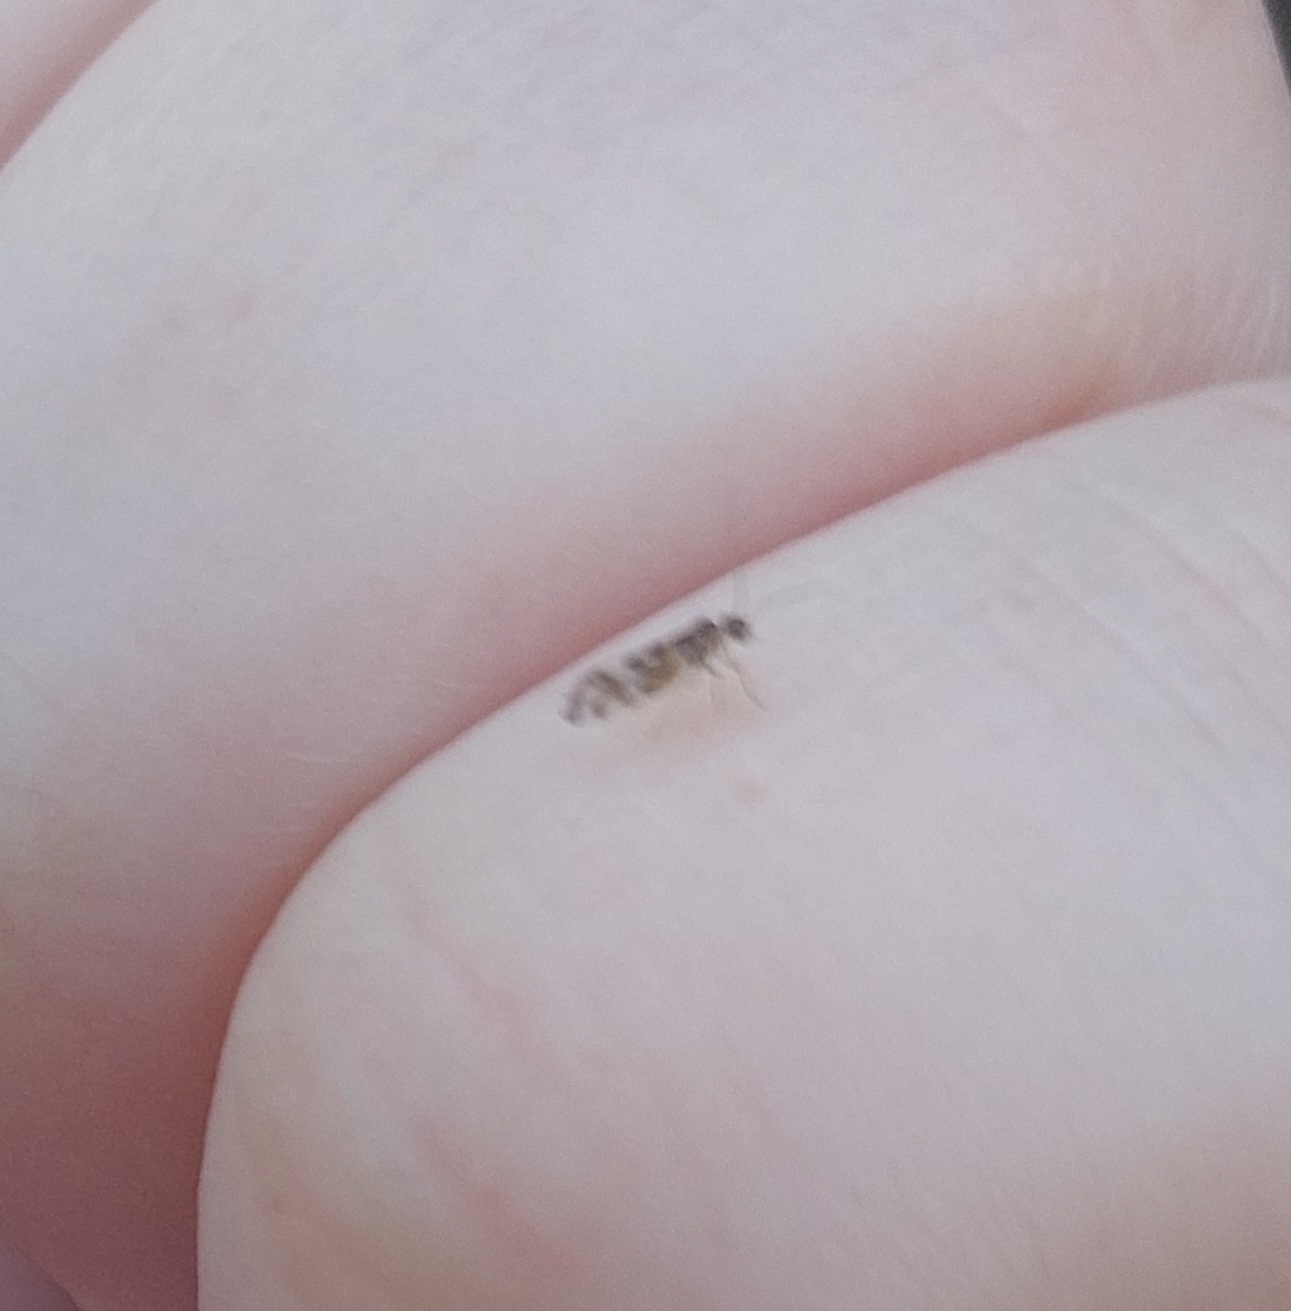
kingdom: Animalia
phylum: Arthropoda
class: Insecta
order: Psocodea
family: Stenopsocidae
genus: Graphopsocus
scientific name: Graphopsocus cruciatus
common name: Lizard bark louse
